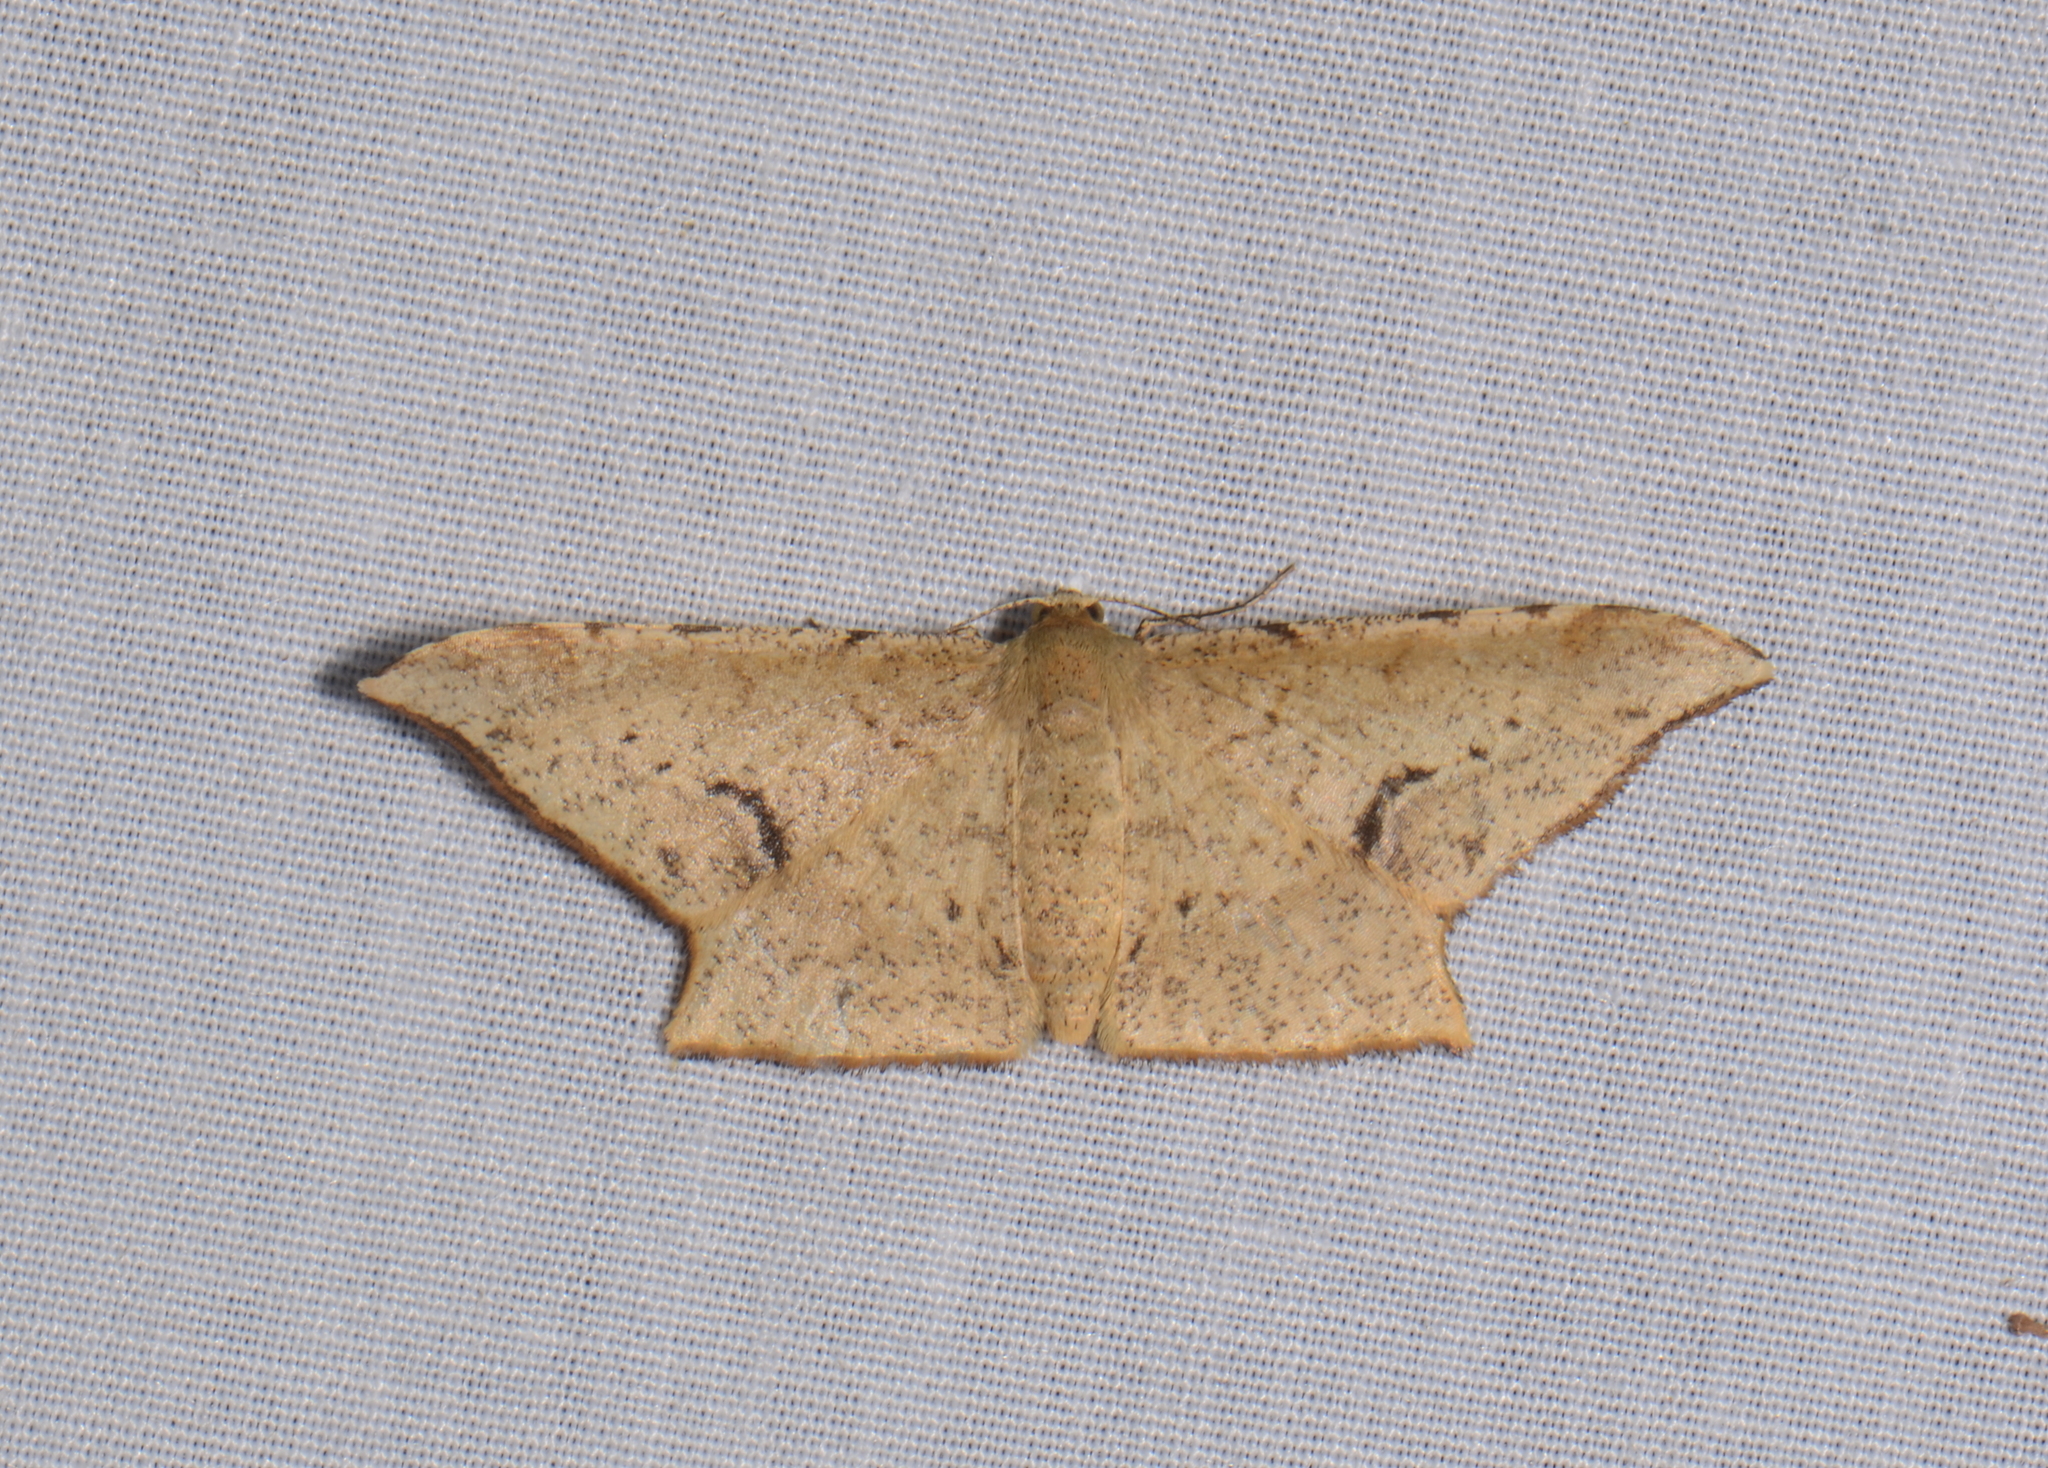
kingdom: Animalia
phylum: Arthropoda
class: Insecta
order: Lepidoptera
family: Geometridae
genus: Krananda
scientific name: Krananda falcata
